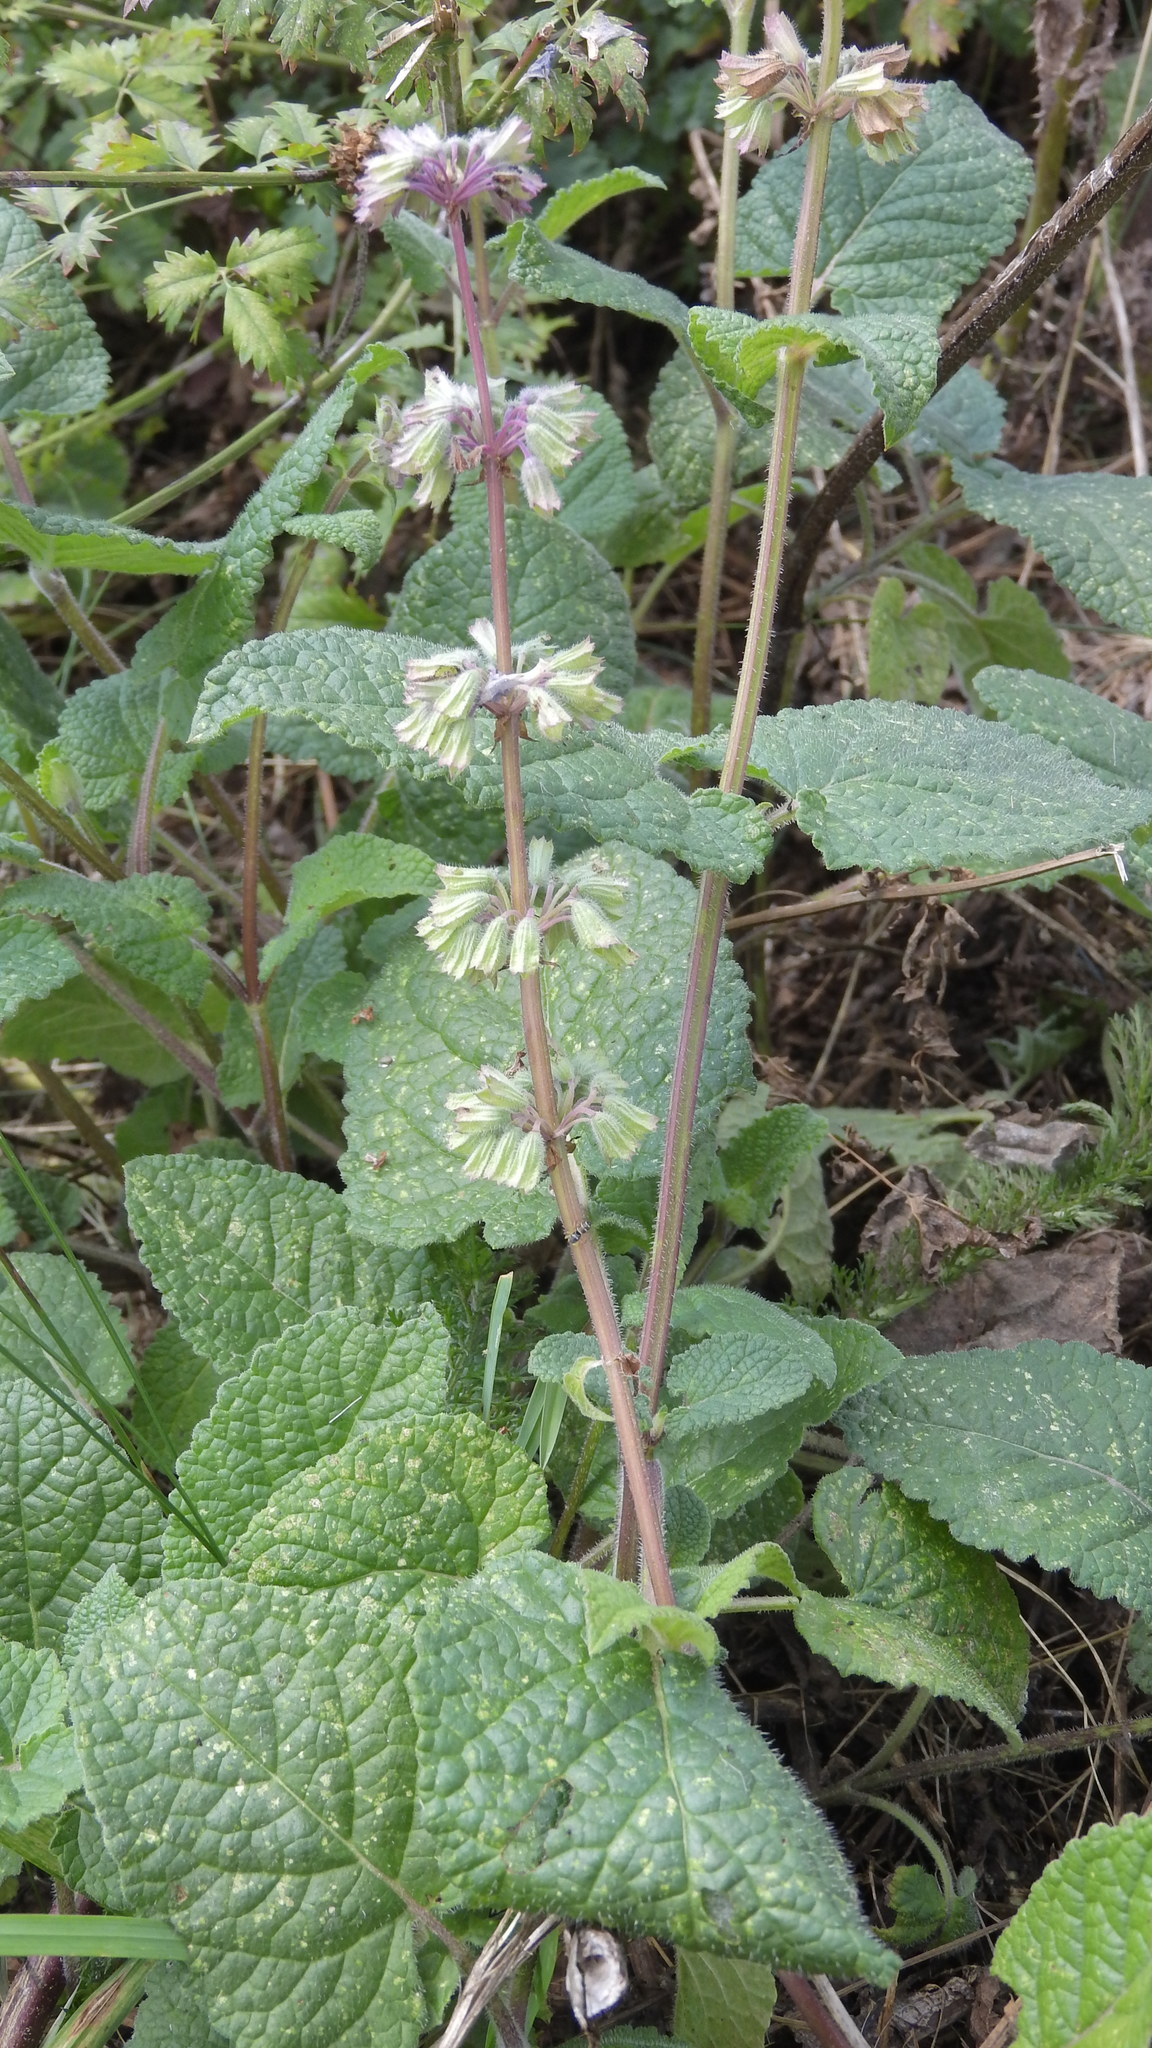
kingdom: Plantae
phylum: Tracheophyta
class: Magnoliopsida
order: Lamiales
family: Lamiaceae
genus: Salvia
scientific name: Salvia verticillata
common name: Whorled clary
